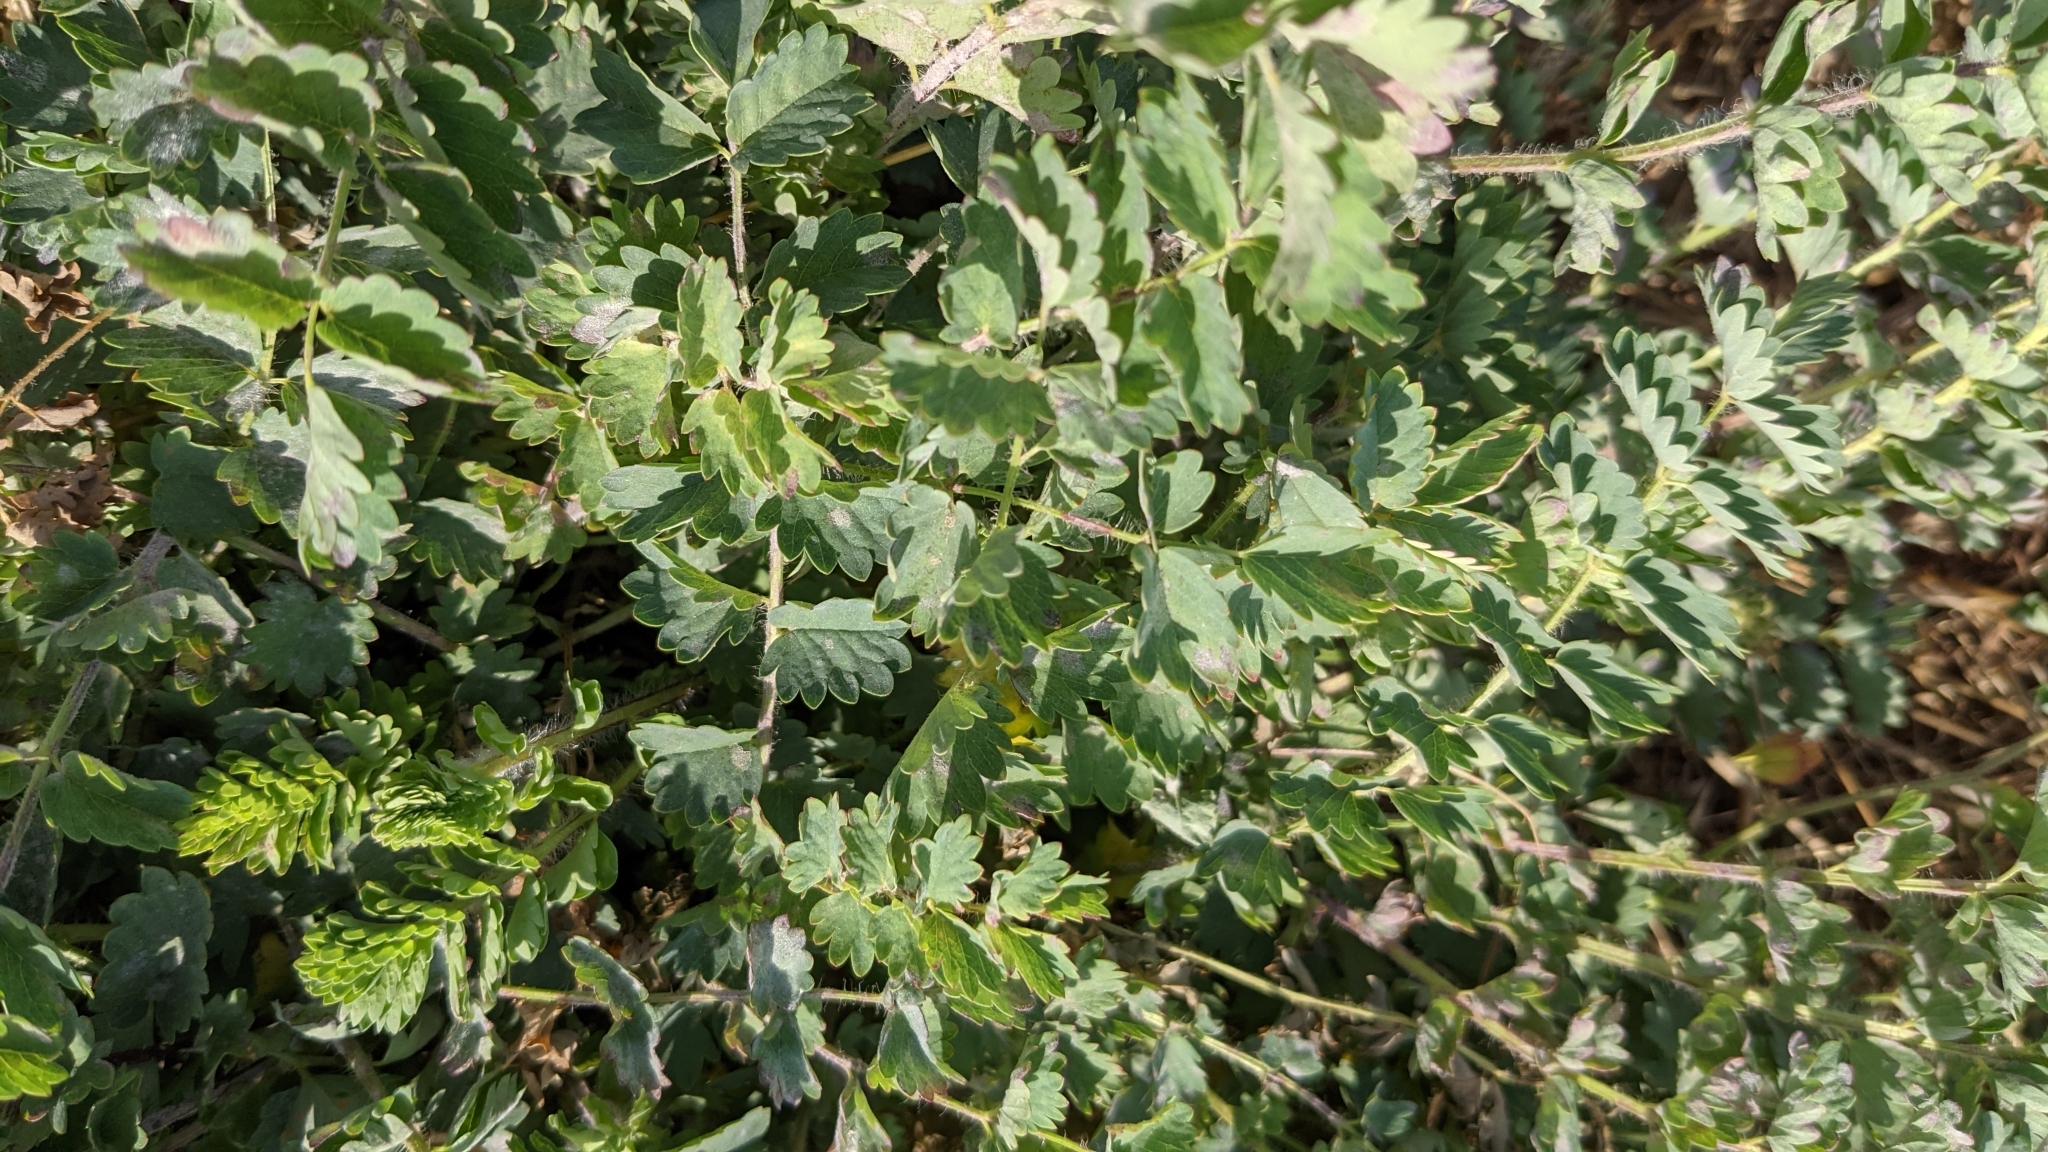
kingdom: Plantae
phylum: Tracheophyta
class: Magnoliopsida
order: Rosales
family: Rosaceae
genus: Poterium
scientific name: Poterium sanguisorba
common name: Salad burnet
